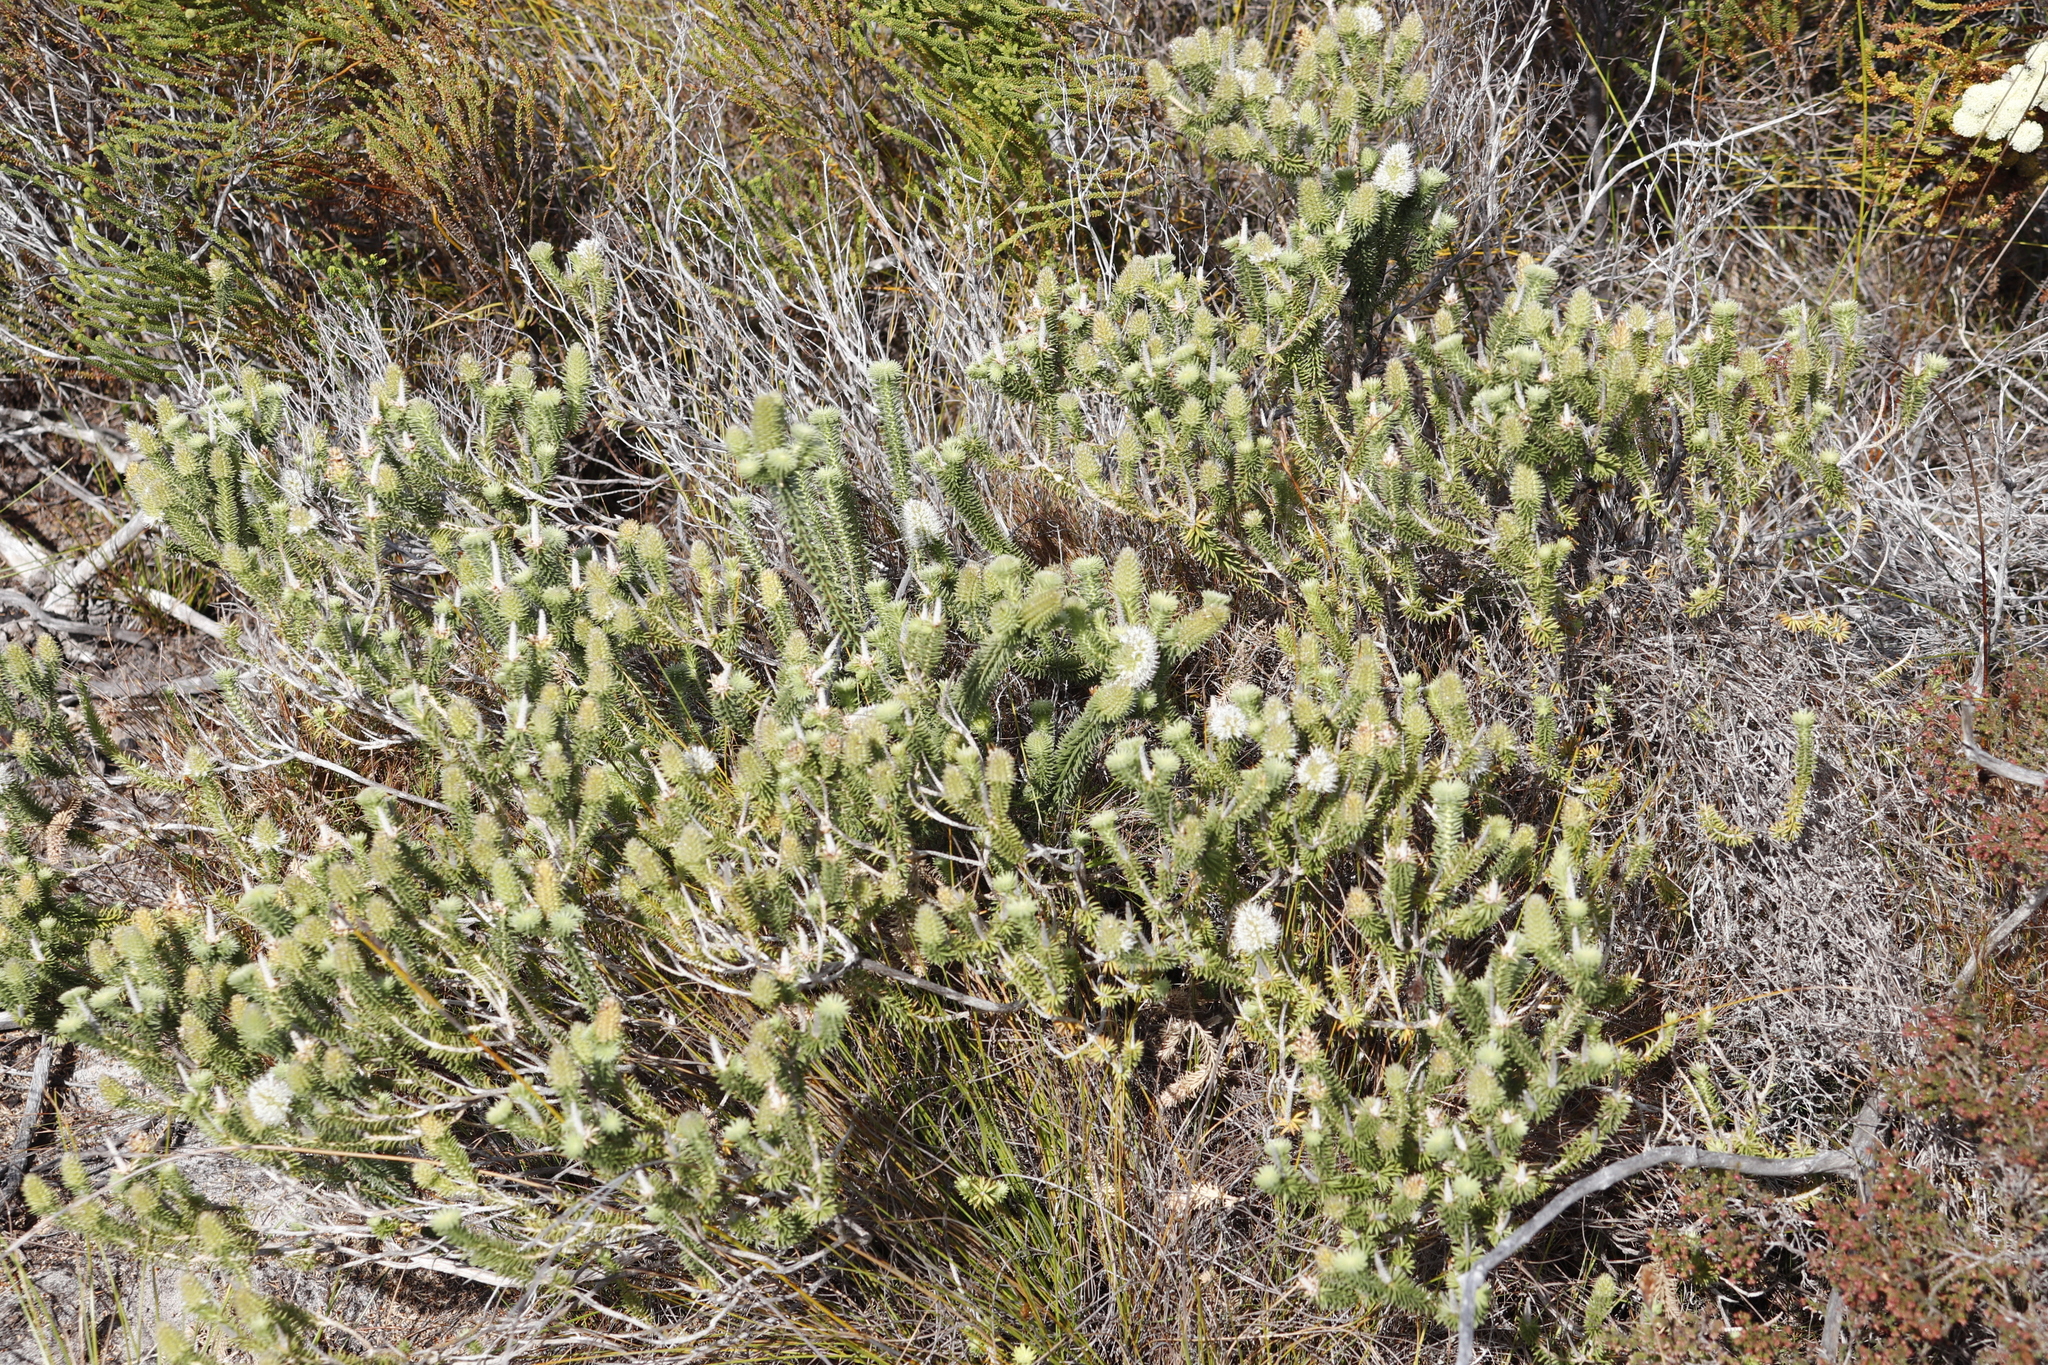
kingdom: Plantae
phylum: Tracheophyta
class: Magnoliopsida
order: Lamiales
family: Stilbaceae
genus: Stilbe
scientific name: Stilbe vestita
